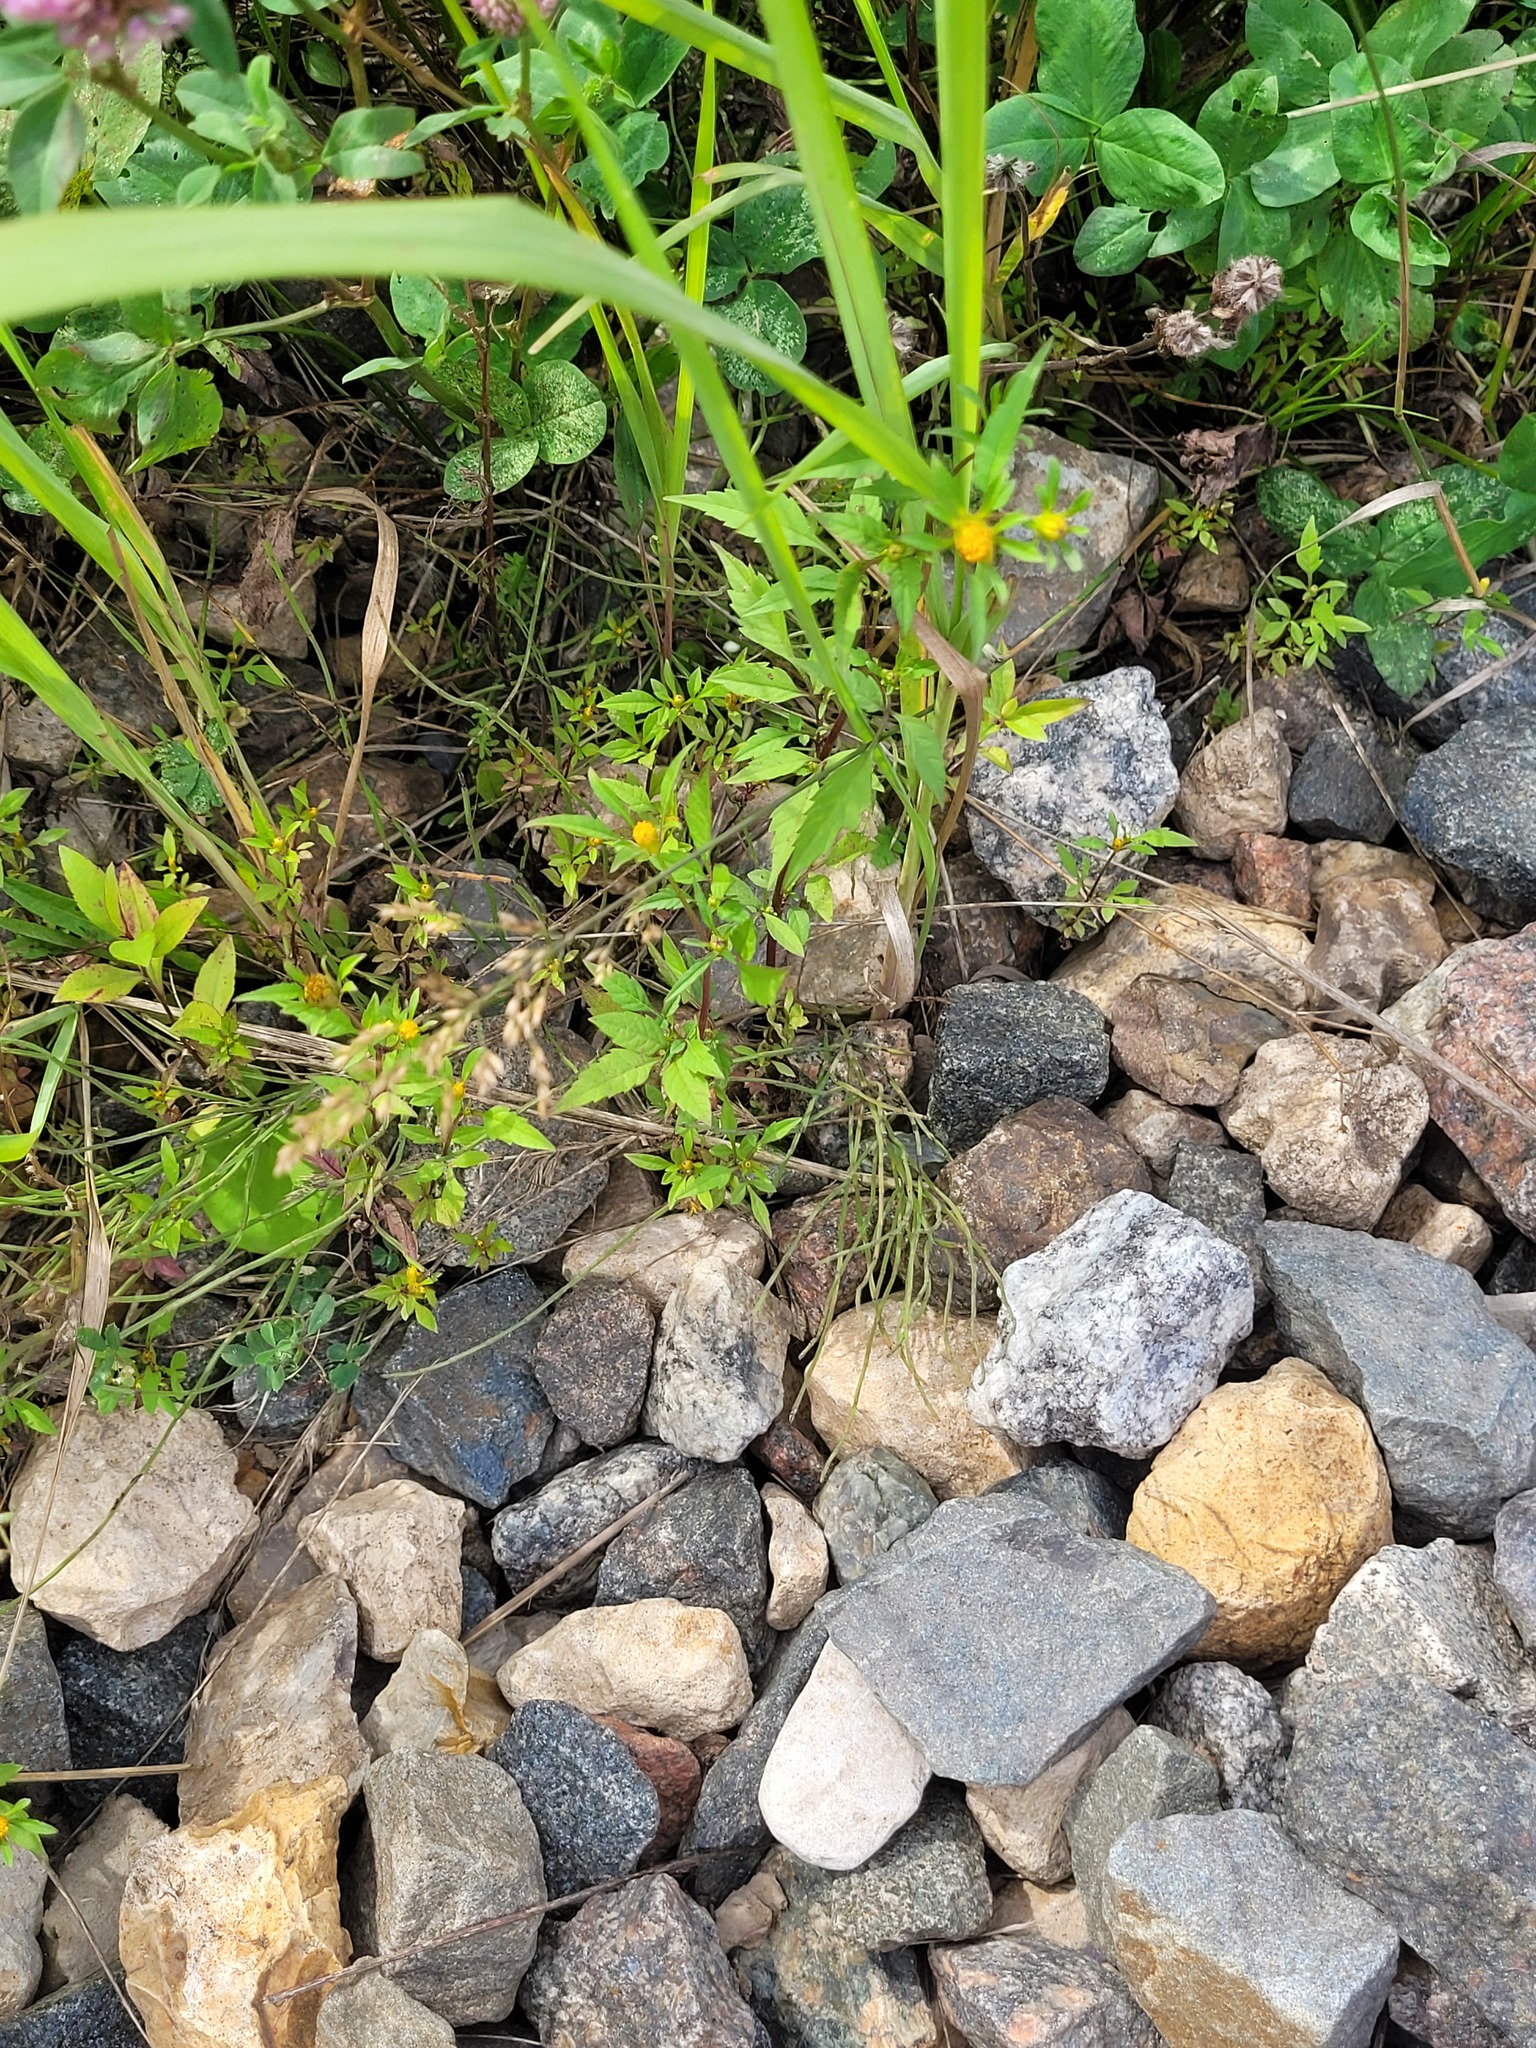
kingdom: Plantae
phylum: Tracheophyta
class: Magnoliopsida
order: Asterales
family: Asteraceae
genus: Bidens
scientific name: Bidens frondosa
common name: Beggarticks
